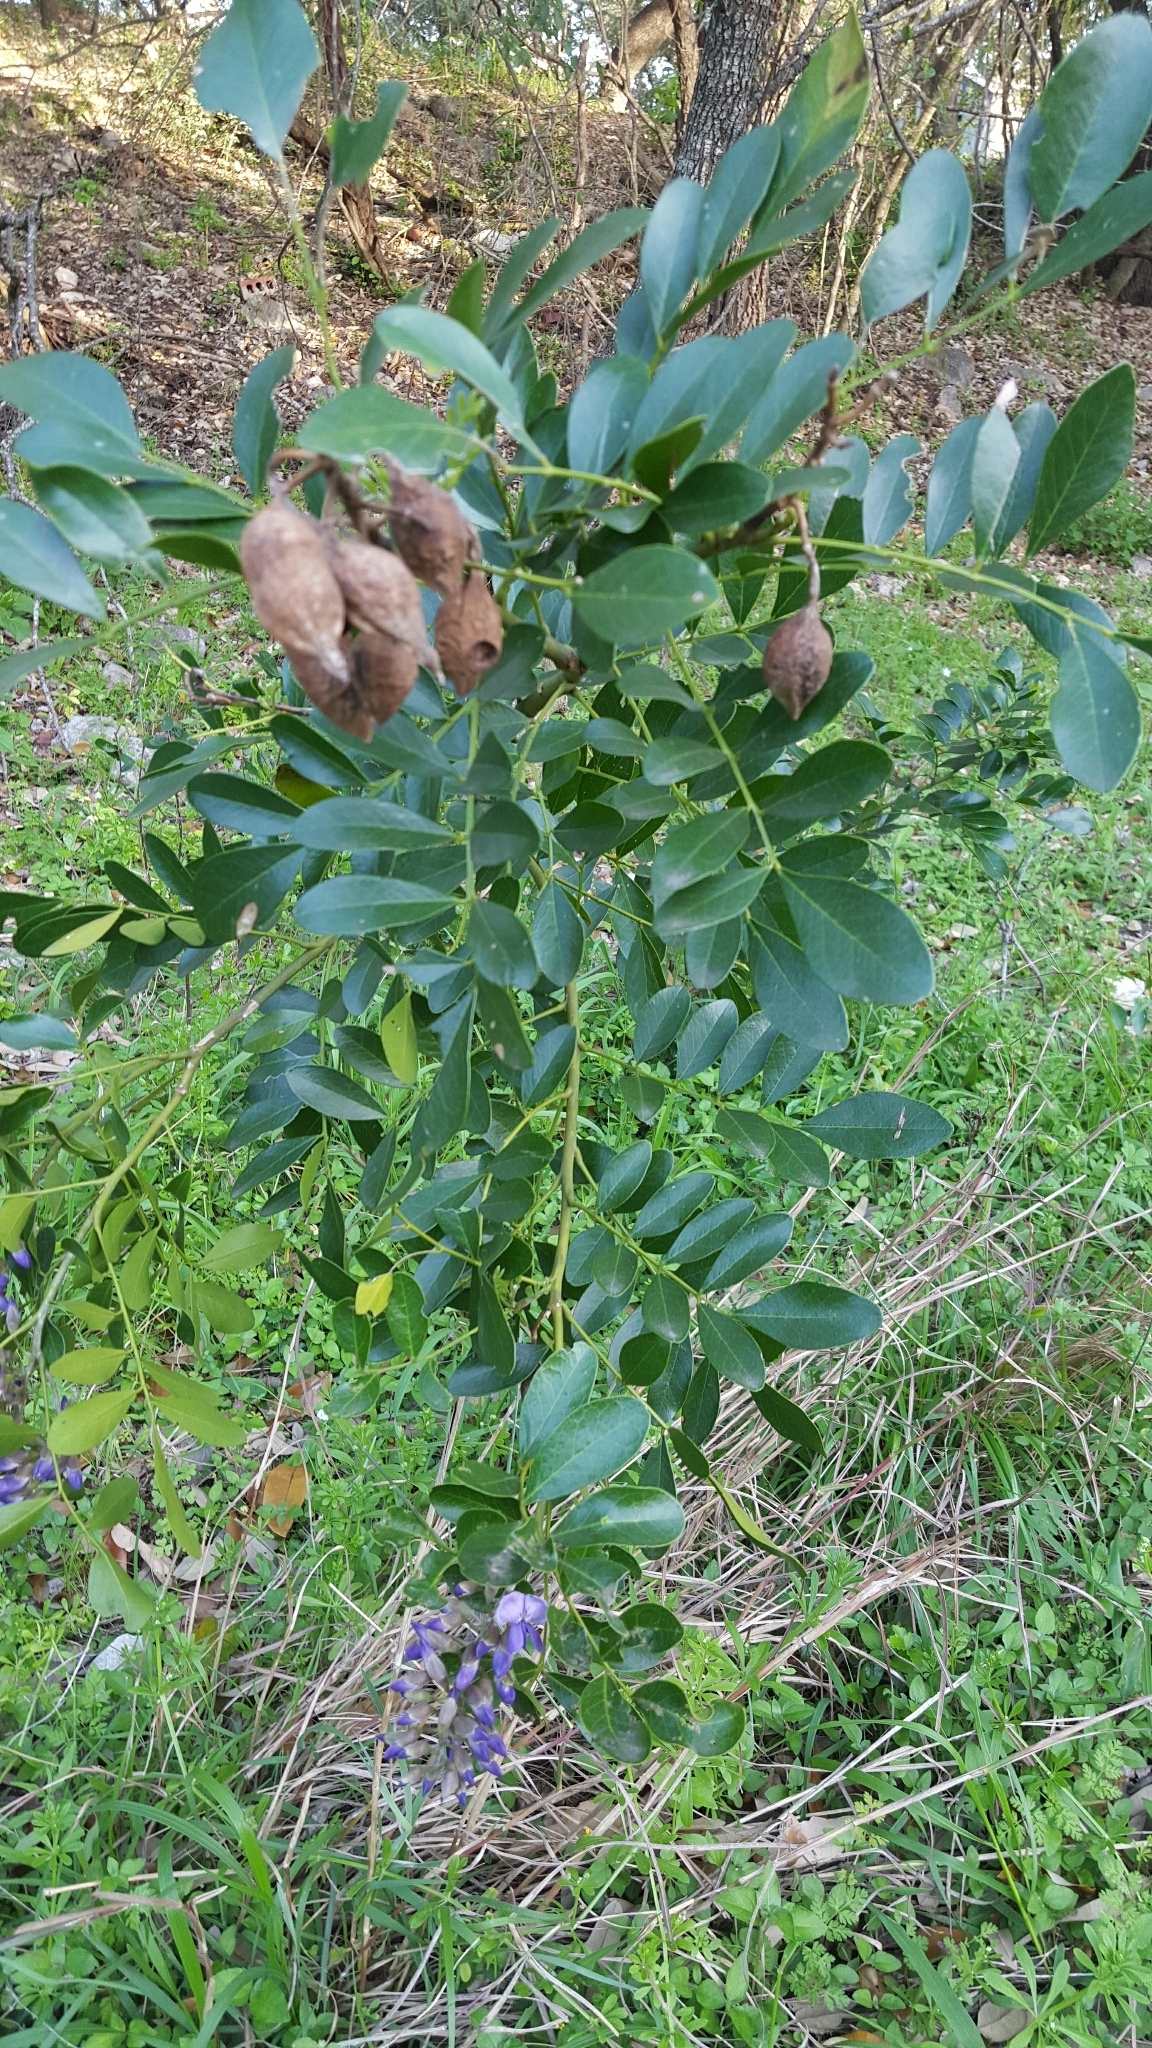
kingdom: Plantae
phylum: Tracheophyta
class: Magnoliopsida
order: Fabales
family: Fabaceae
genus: Dermatophyllum
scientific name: Dermatophyllum secundiflorum
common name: Texas-mountain-laurel
